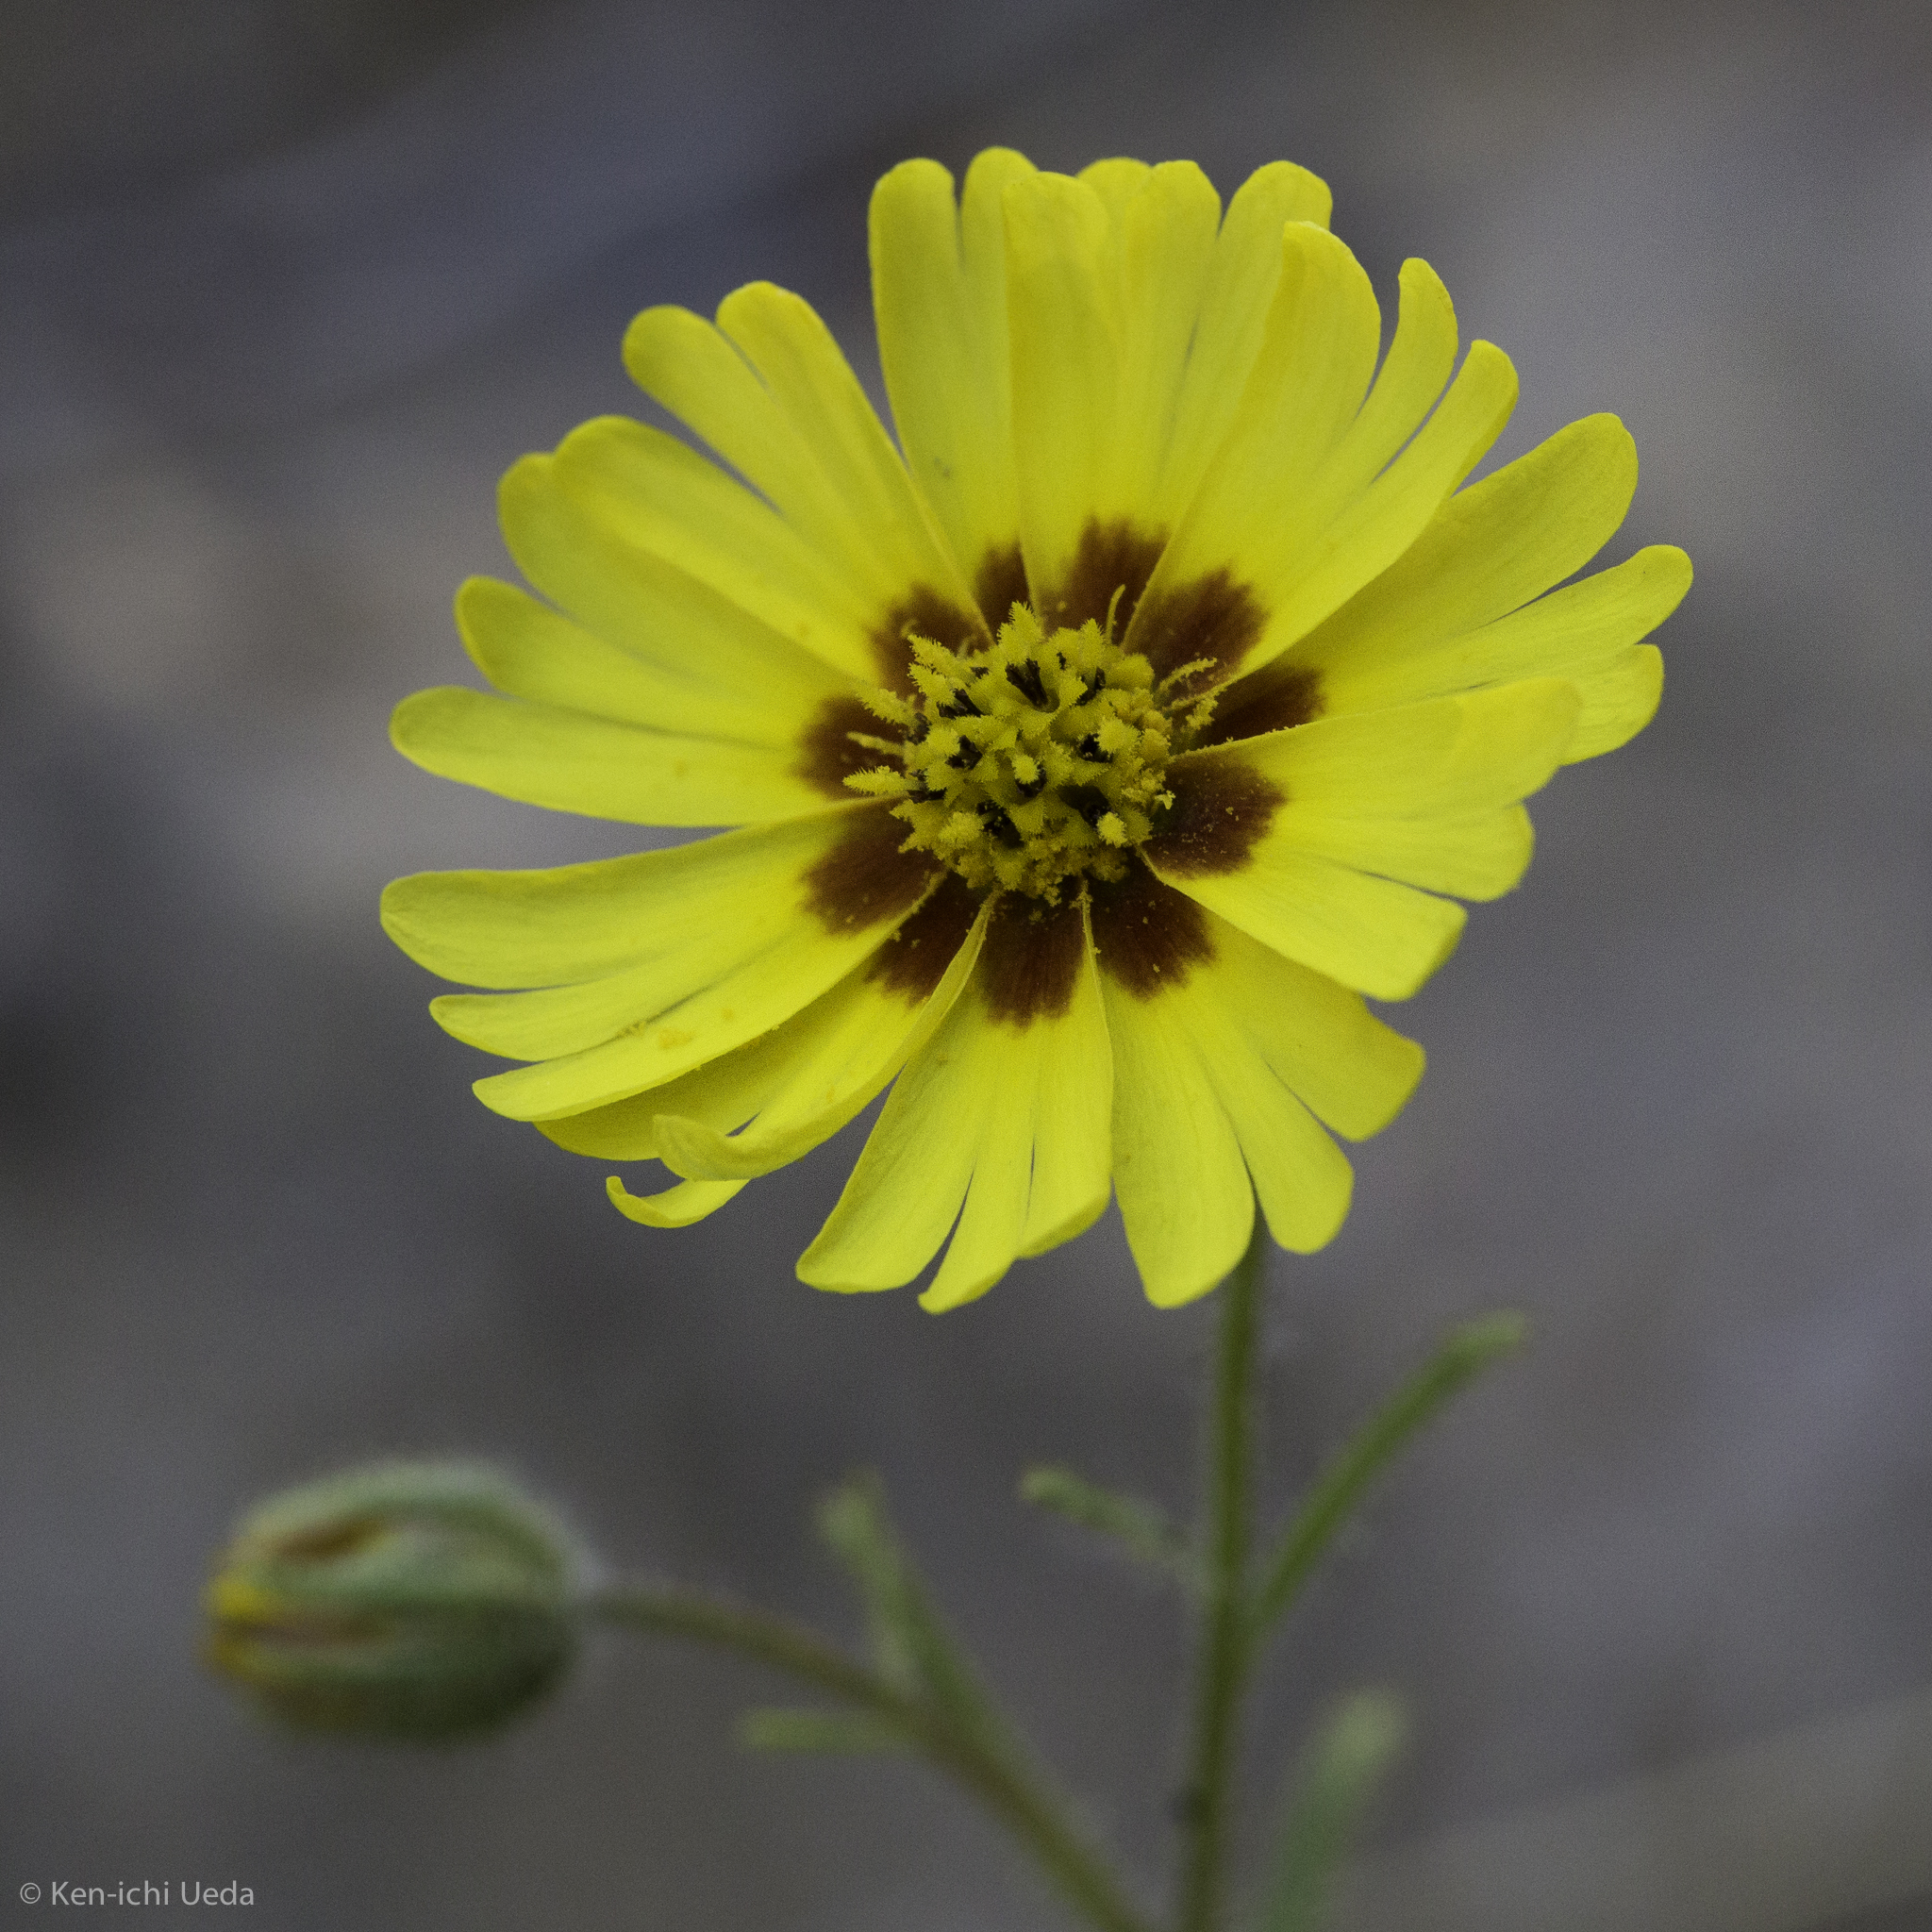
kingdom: Plantae
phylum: Tracheophyta
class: Magnoliopsida
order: Asterales
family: Asteraceae
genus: Madia
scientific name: Madia elegans
